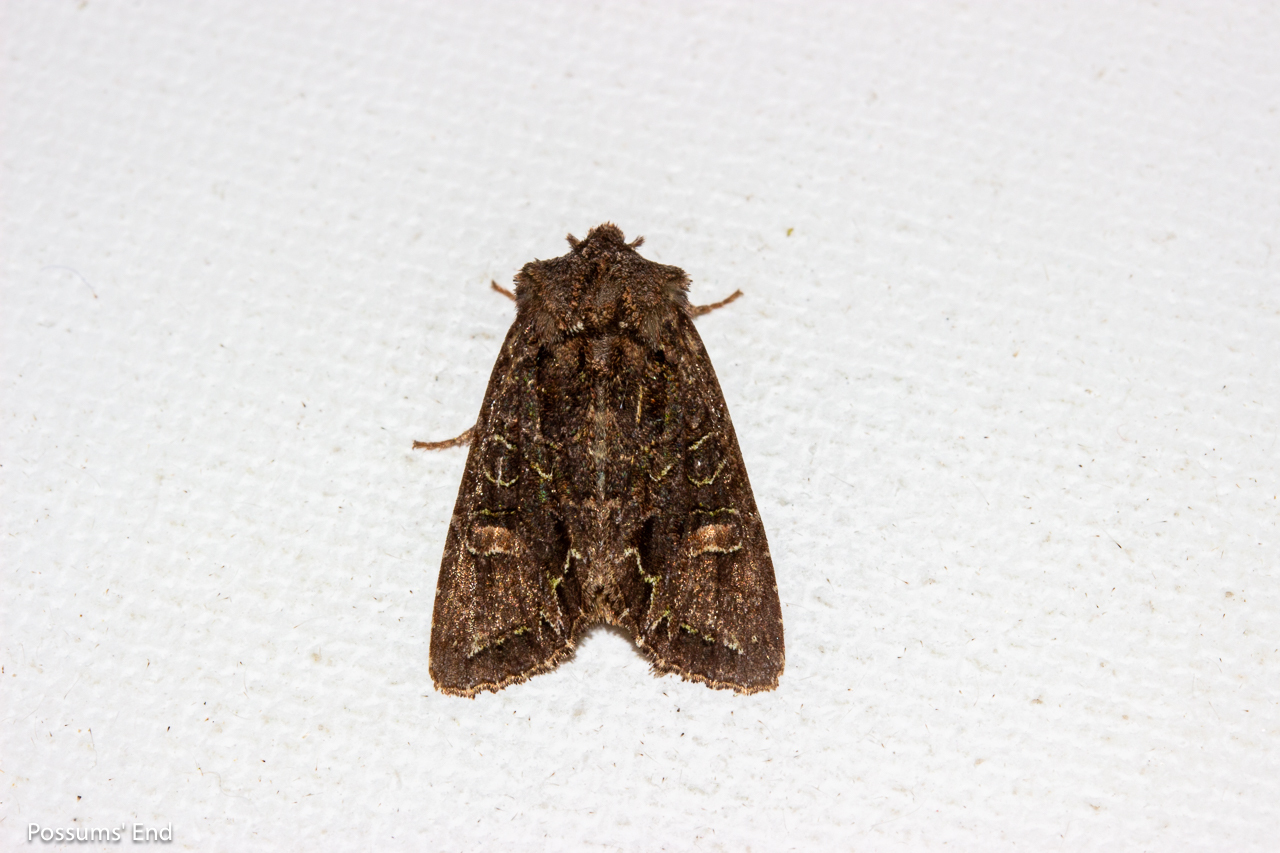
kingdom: Animalia
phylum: Arthropoda
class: Insecta
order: Lepidoptera
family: Noctuidae
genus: Ichneutica
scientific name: Ichneutica insignis
